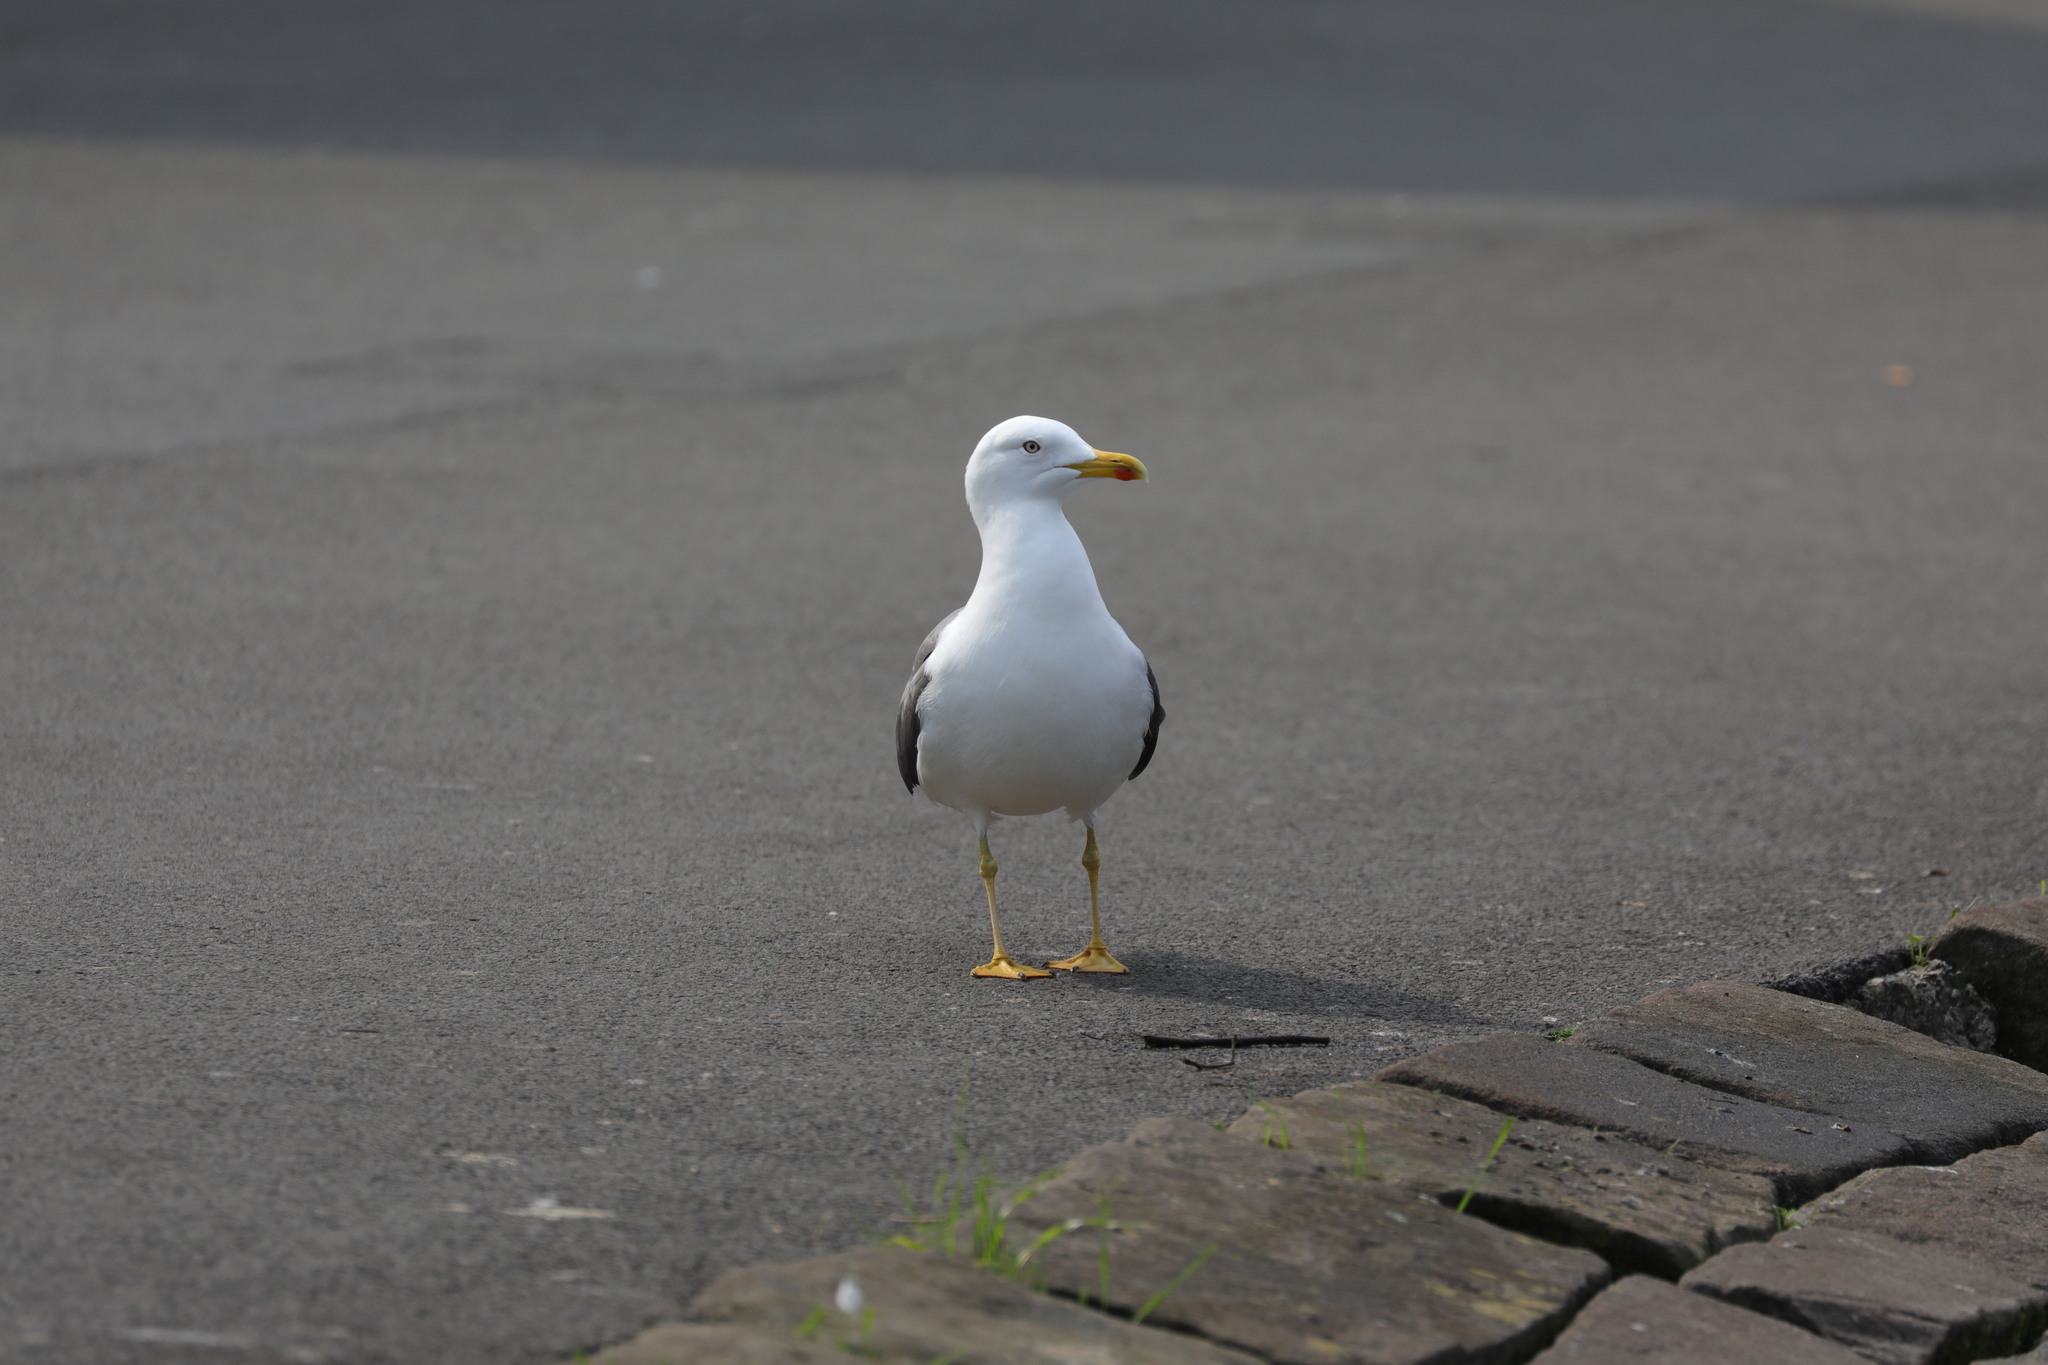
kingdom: Animalia
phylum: Chordata
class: Aves
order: Charadriiformes
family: Laridae
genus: Larus
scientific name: Larus fuscus
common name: Lesser black-backed gull
